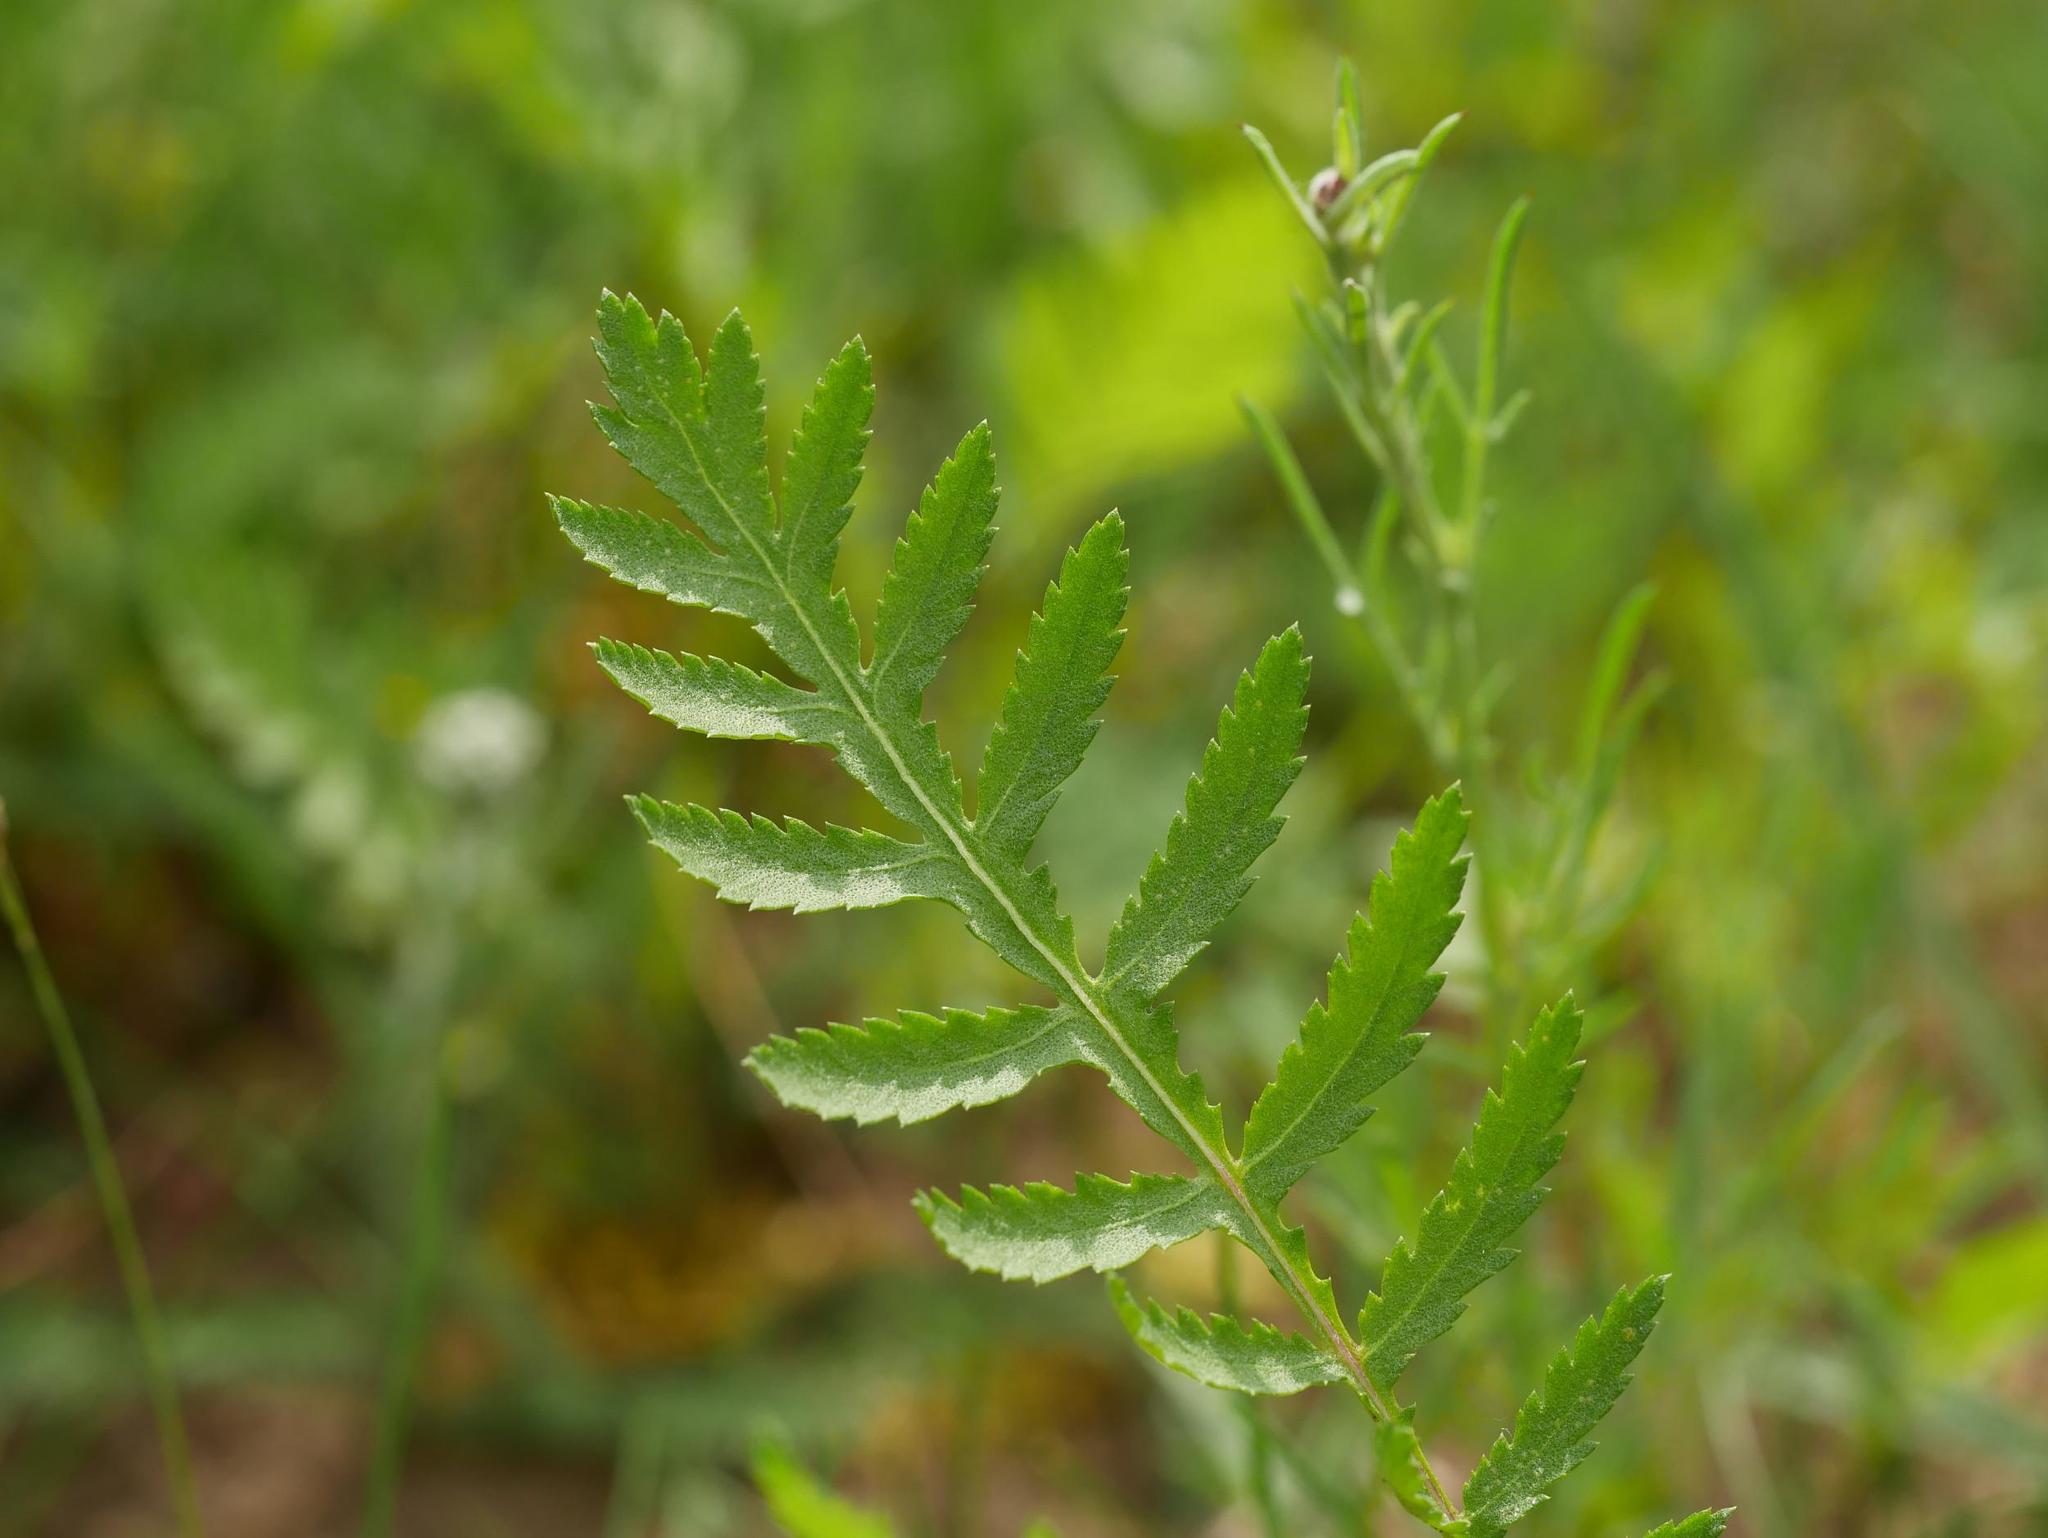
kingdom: Plantae
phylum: Tracheophyta
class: Magnoliopsida
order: Asterales
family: Asteraceae
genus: Tanacetum
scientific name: Tanacetum vulgare
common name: Common tansy
